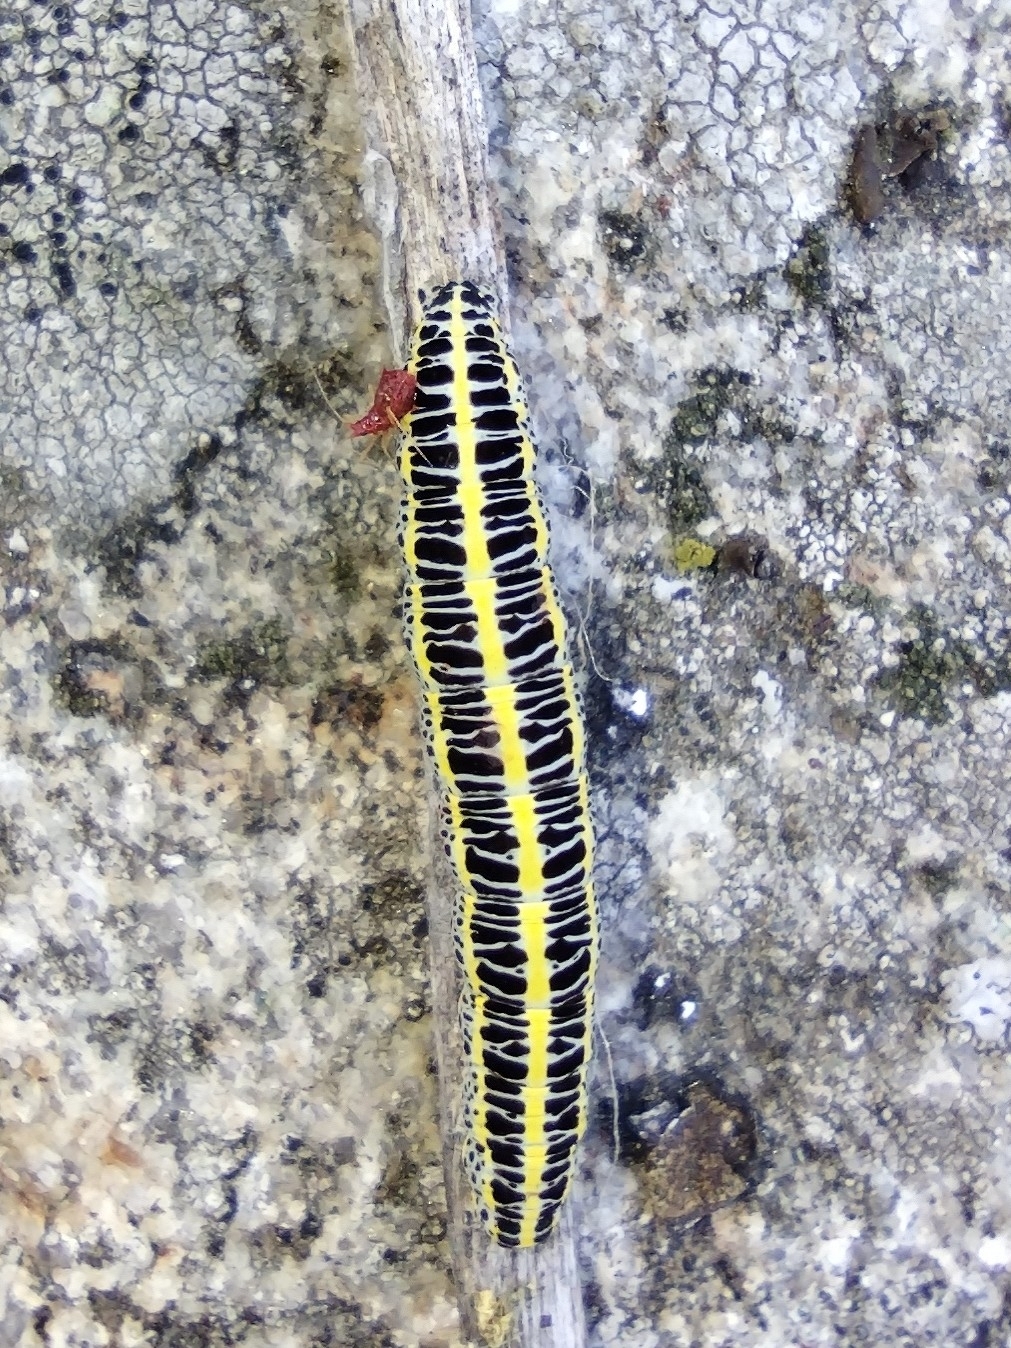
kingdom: Animalia
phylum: Arthropoda
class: Insecta
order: Lepidoptera
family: Noctuidae
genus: Calophasia
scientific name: Calophasia lunula
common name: Toadflax brocade
